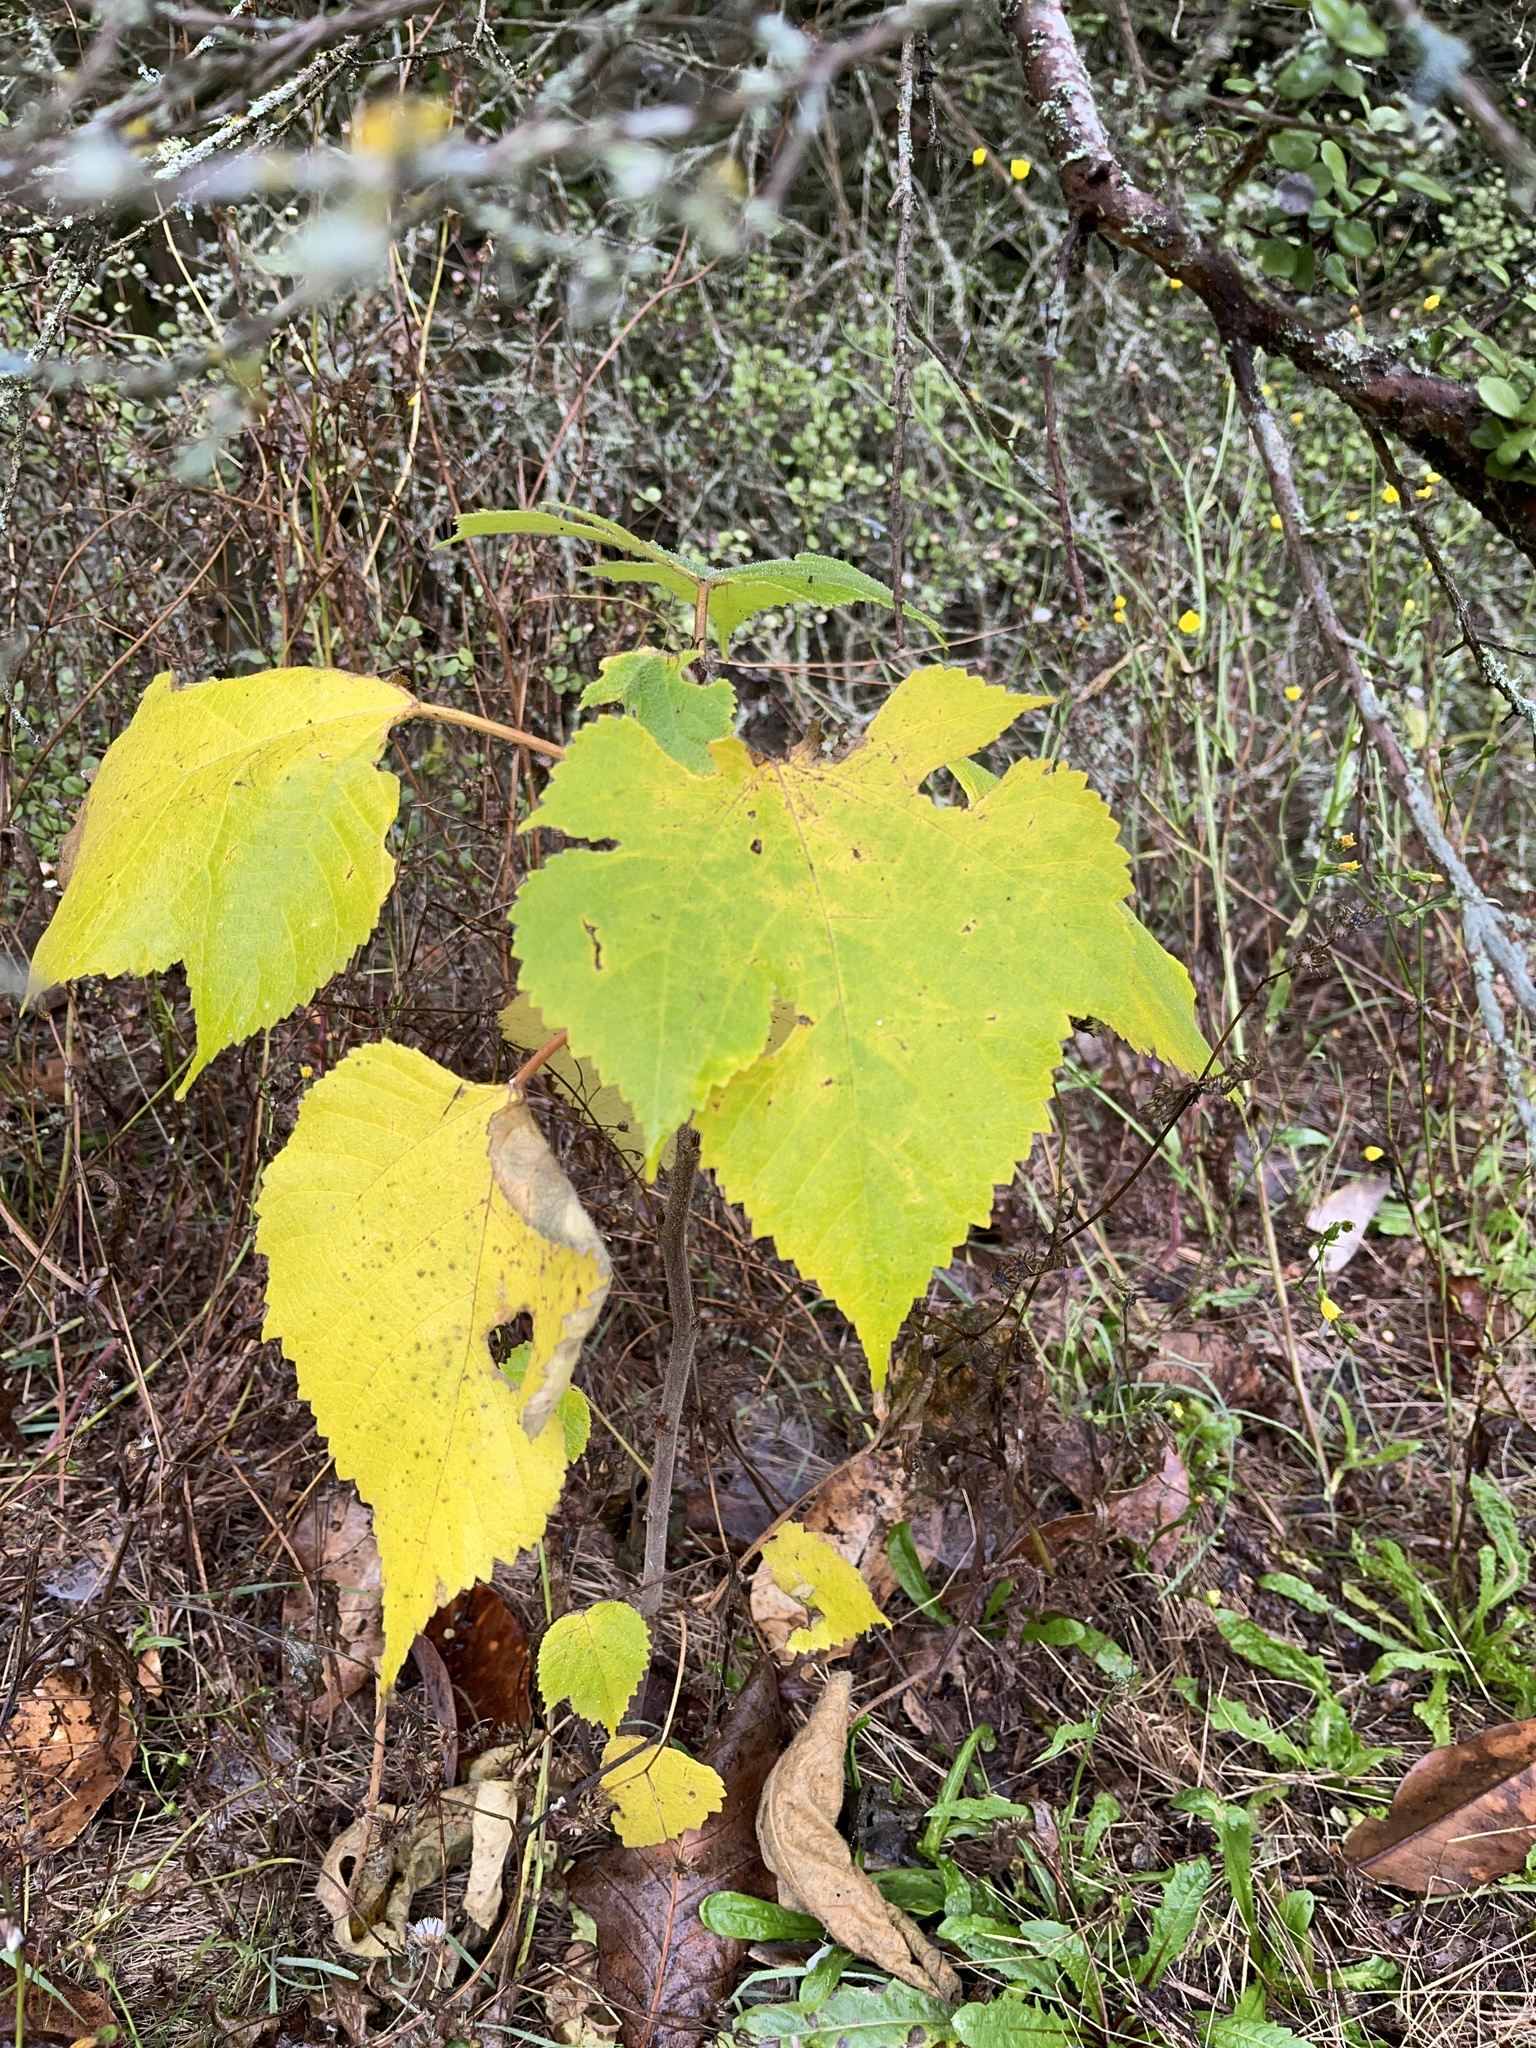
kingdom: Plantae
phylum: Tracheophyta
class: Magnoliopsida
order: Rosales
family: Moraceae
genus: Broussonetia
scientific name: Broussonetia papyrifera
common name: Paper mulberry
